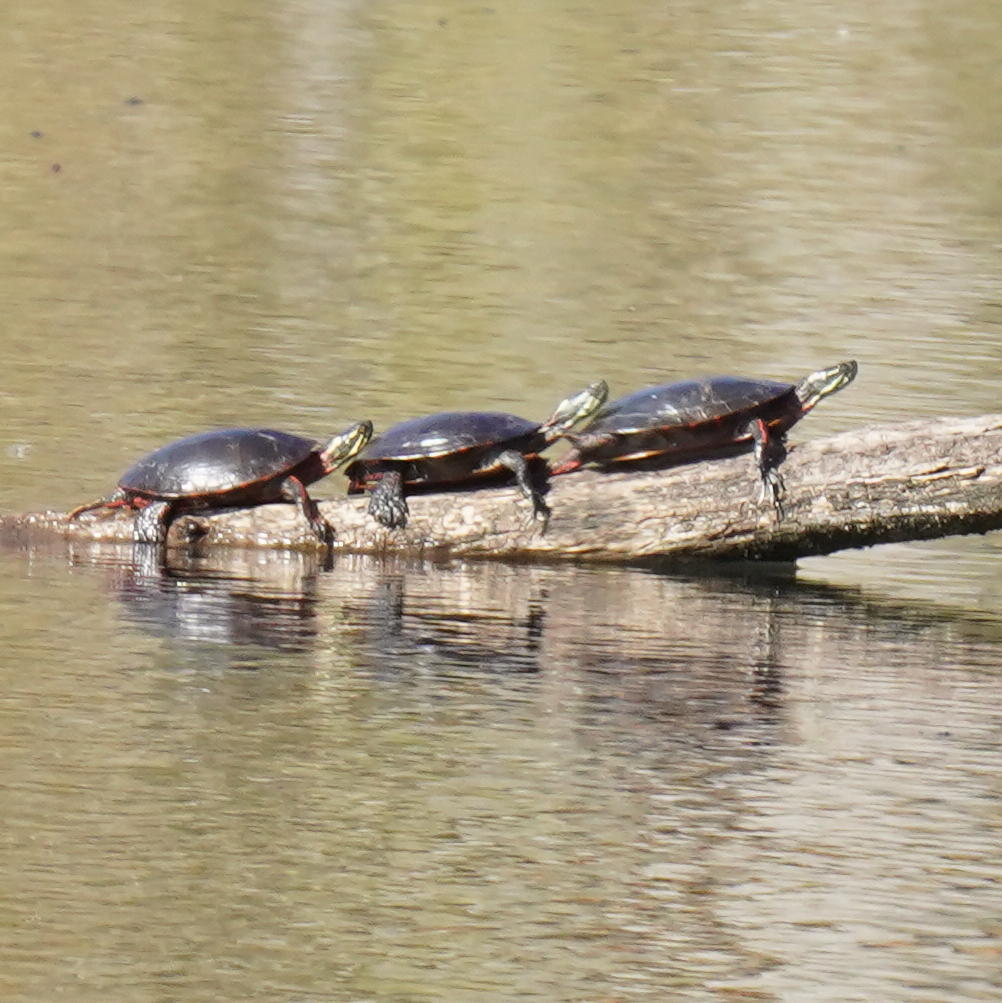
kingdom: Animalia
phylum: Chordata
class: Testudines
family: Emydidae
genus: Chrysemys
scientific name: Chrysemys picta
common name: Painted turtle
